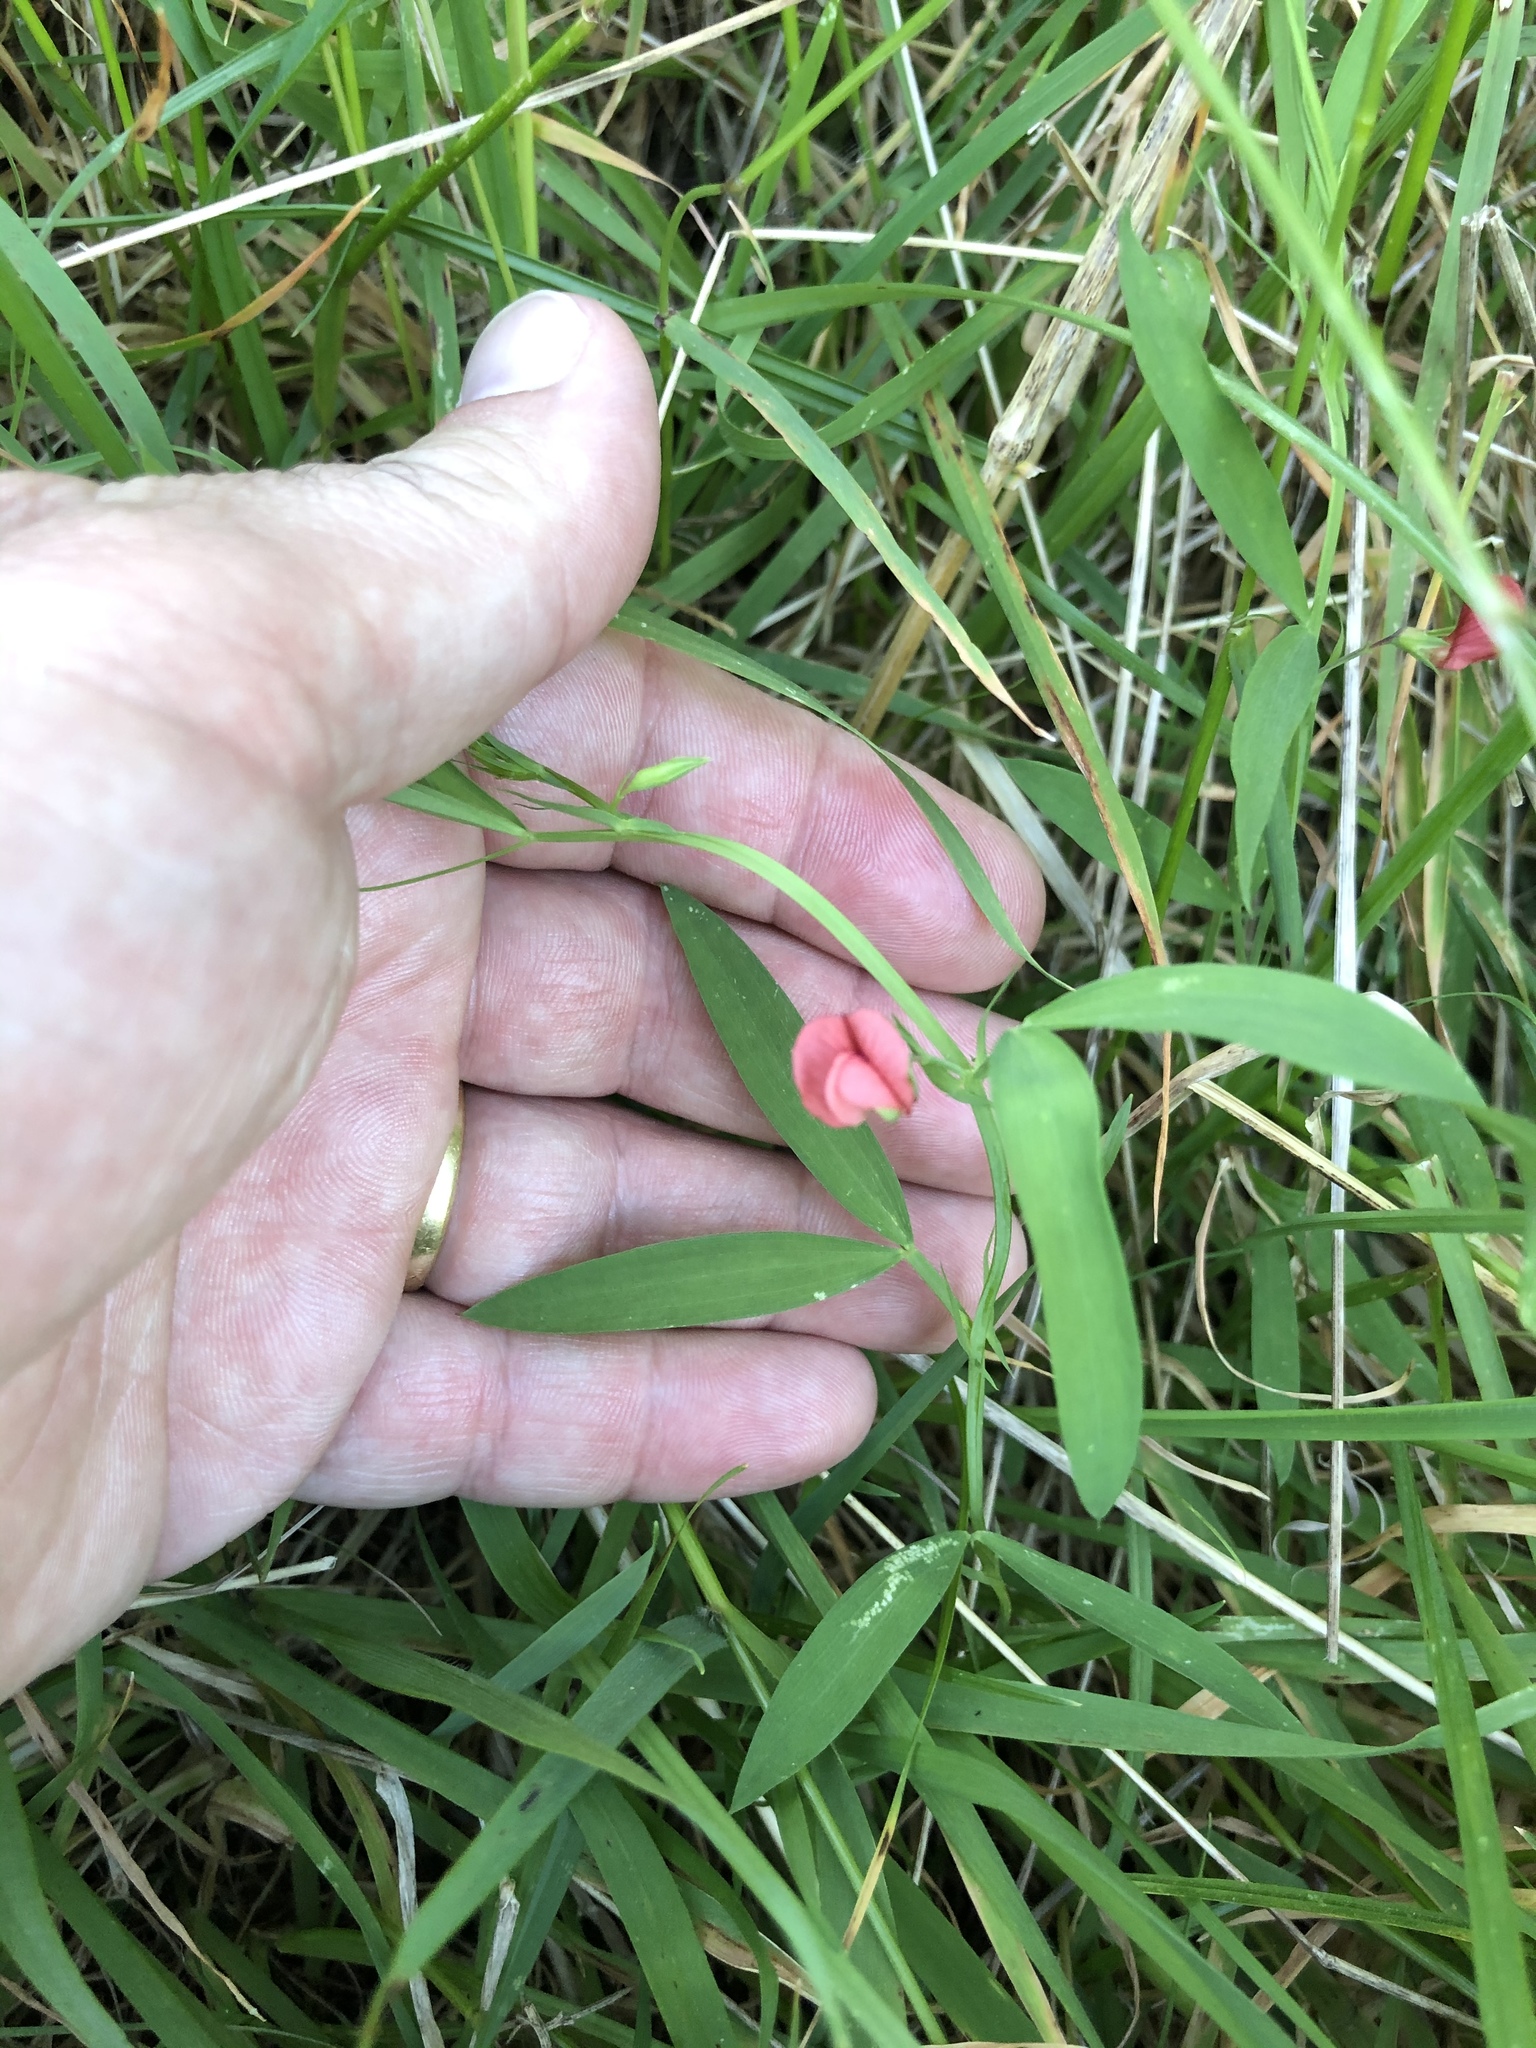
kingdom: Plantae
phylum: Tracheophyta
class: Magnoliopsida
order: Fabales
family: Fabaceae
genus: Lathyrus
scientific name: Lathyrus sphaericus
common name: Grass pea
